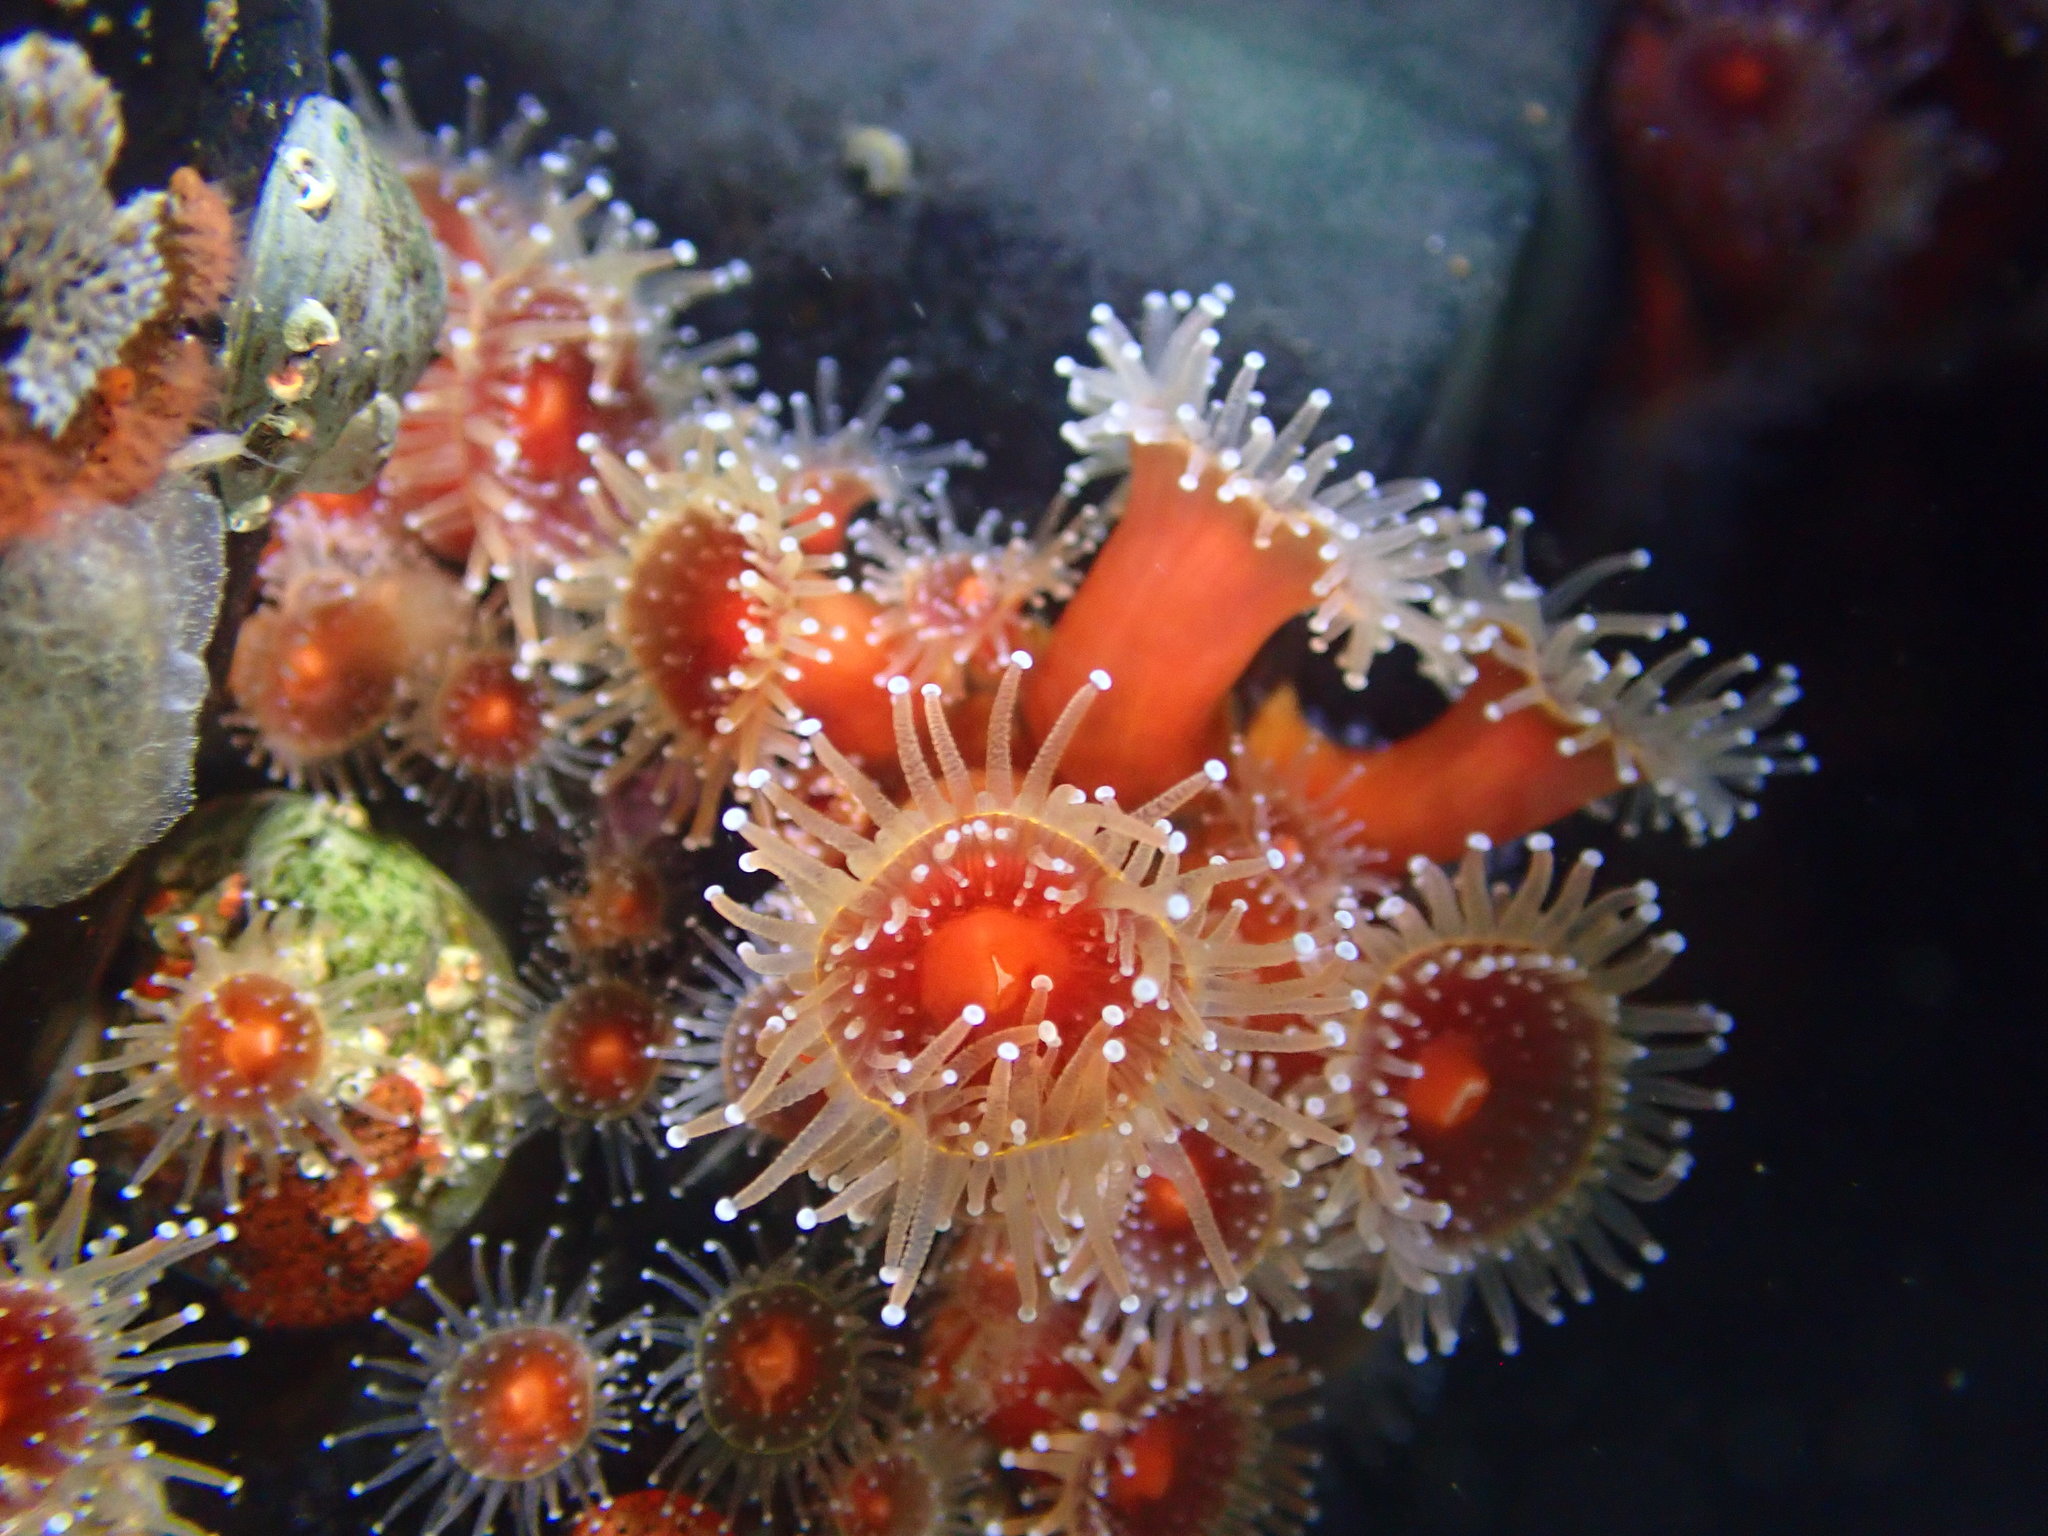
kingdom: Animalia
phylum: Cnidaria
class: Anthozoa
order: Corallimorpharia
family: Corallimorphidae
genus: Corynactis
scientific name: Corynactis californica
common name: Strawberry corallimorpharian
